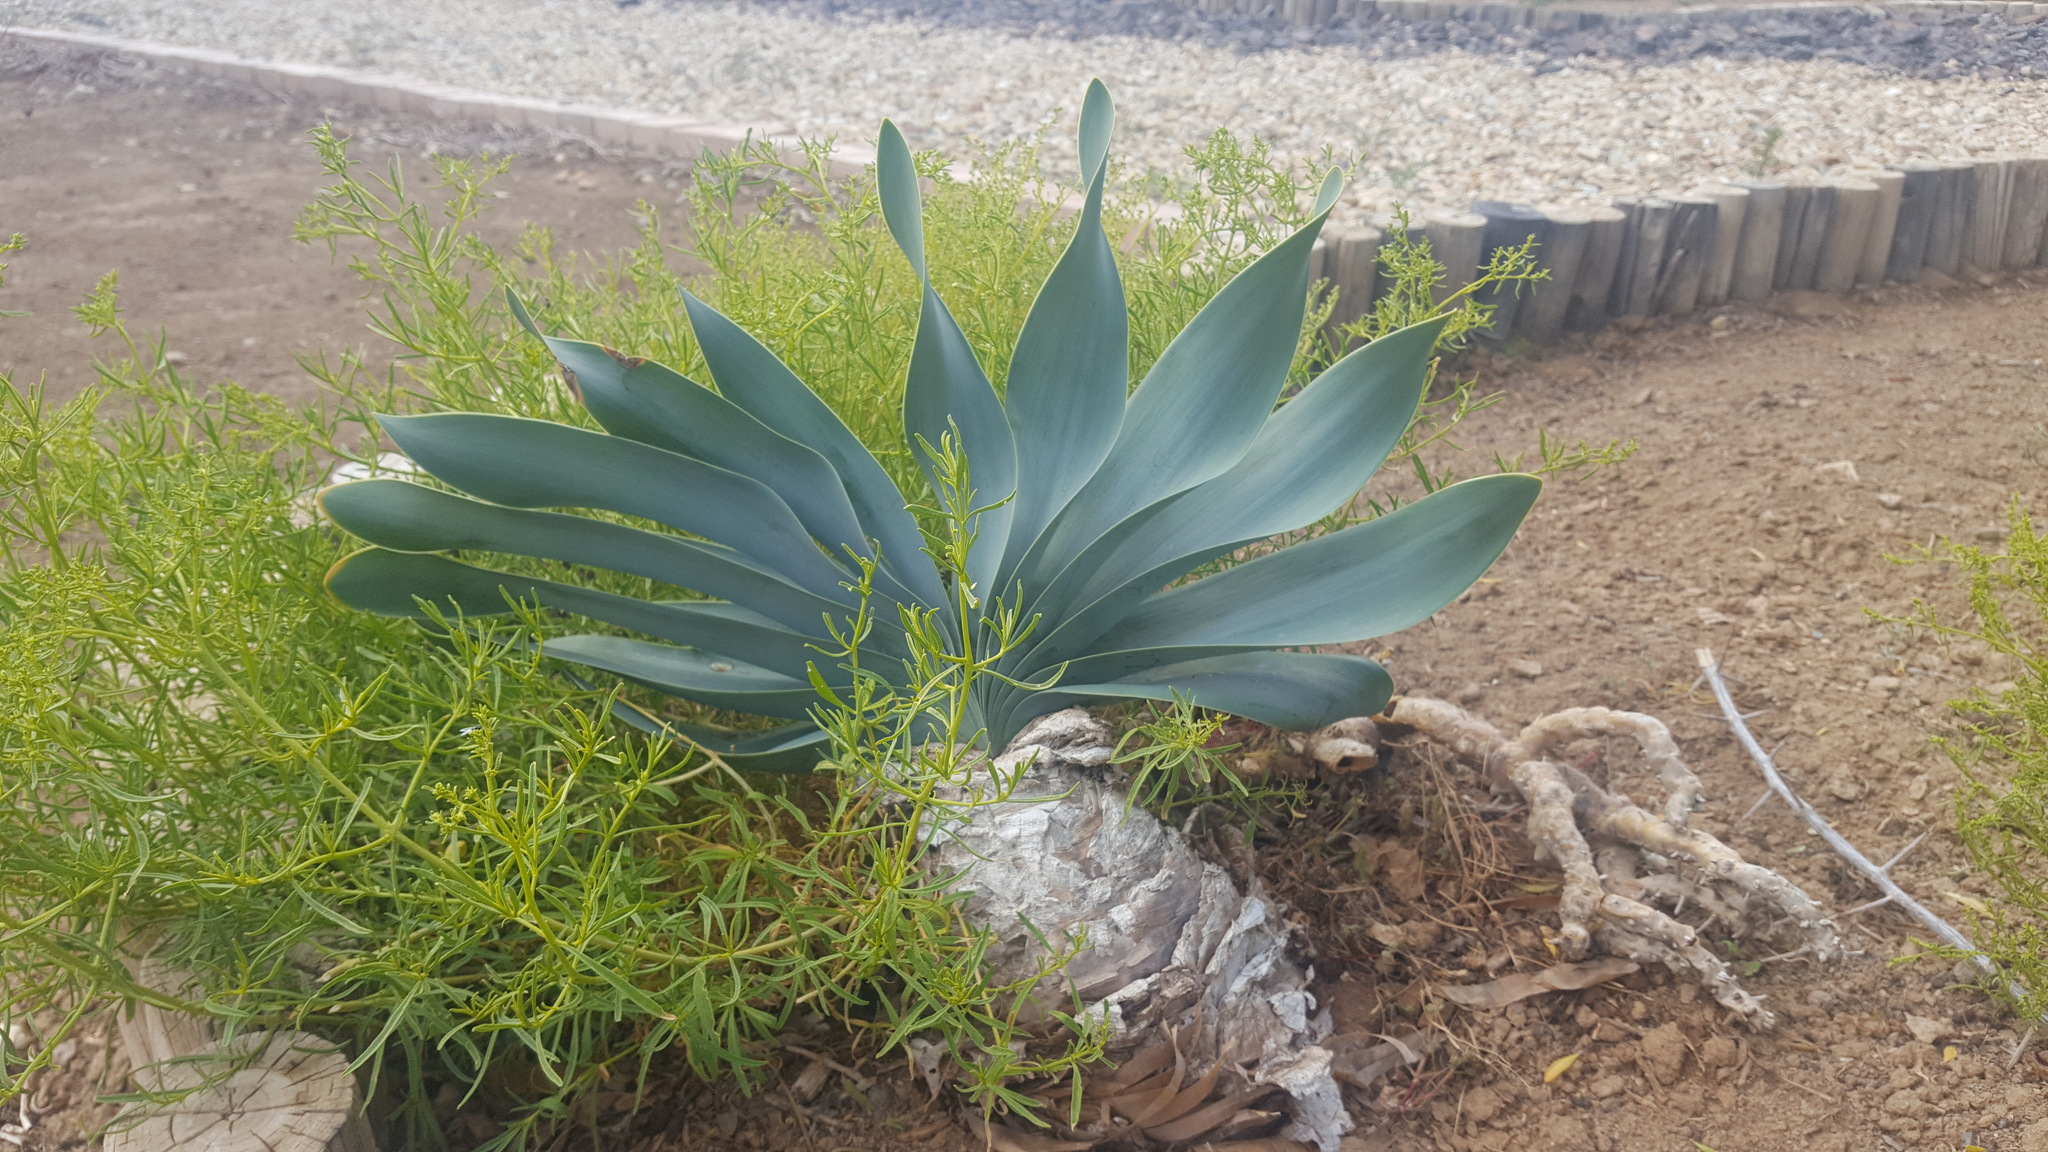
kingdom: Plantae
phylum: Tracheophyta
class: Liliopsida
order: Asparagales
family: Amaryllidaceae
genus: Boophone
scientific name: Boophone haemanthoides
